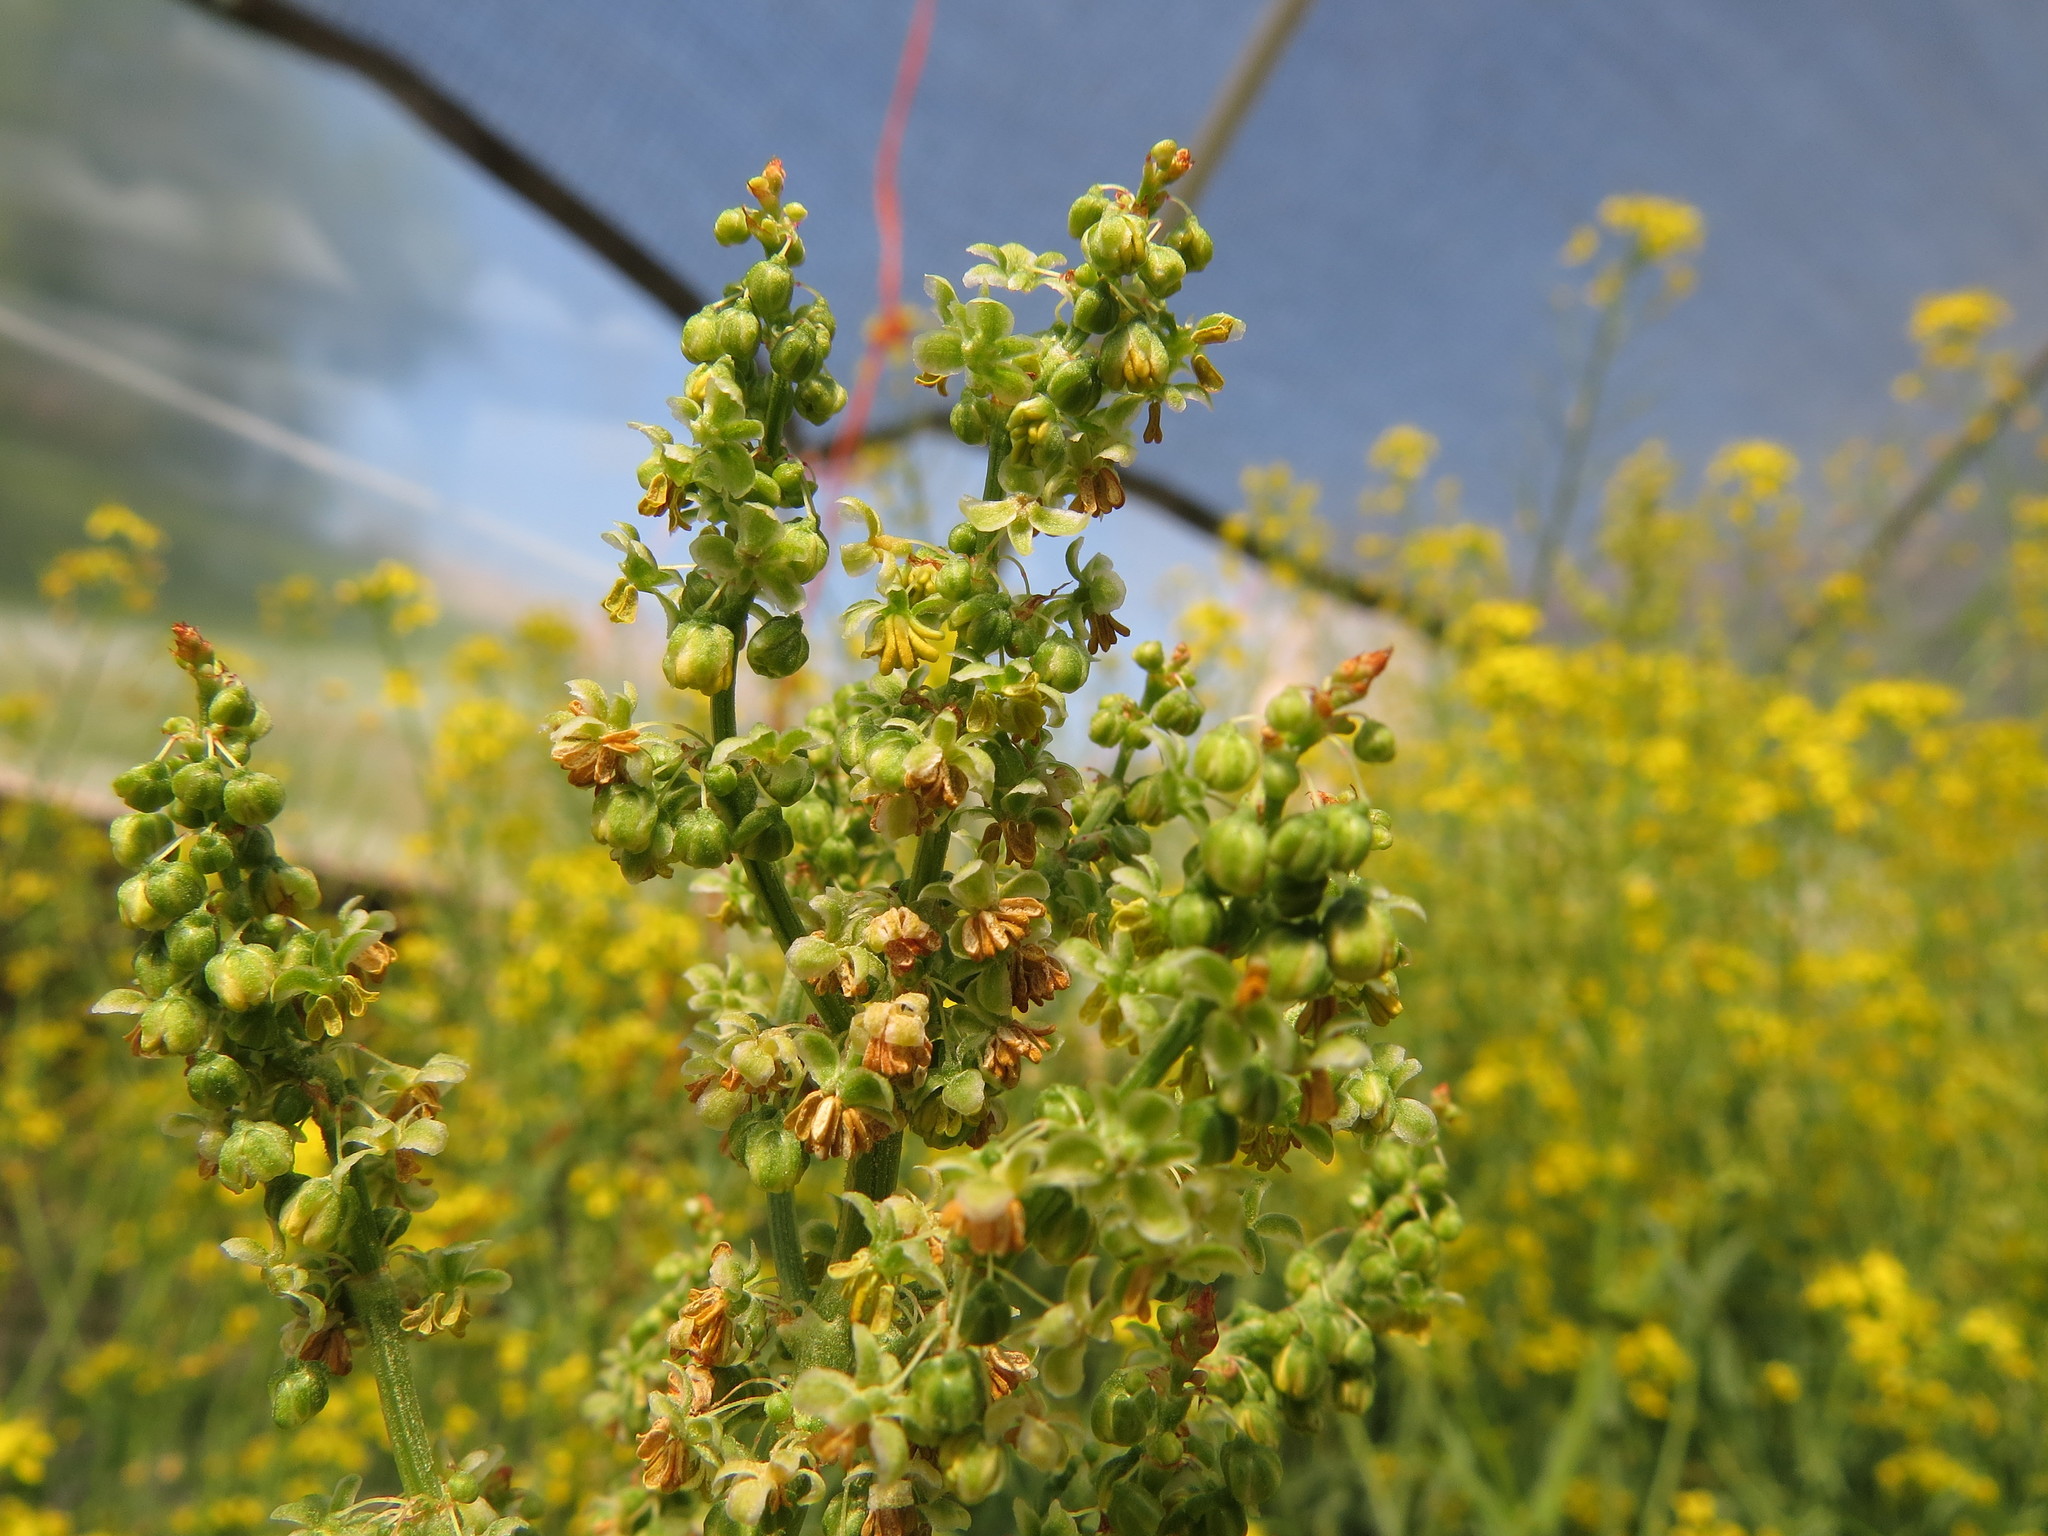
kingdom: Plantae
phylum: Tracheophyta
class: Magnoliopsida
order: Caryophyllales
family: Polygonaceae
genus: Rumex
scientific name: Rumex crispus
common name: Curled dock
